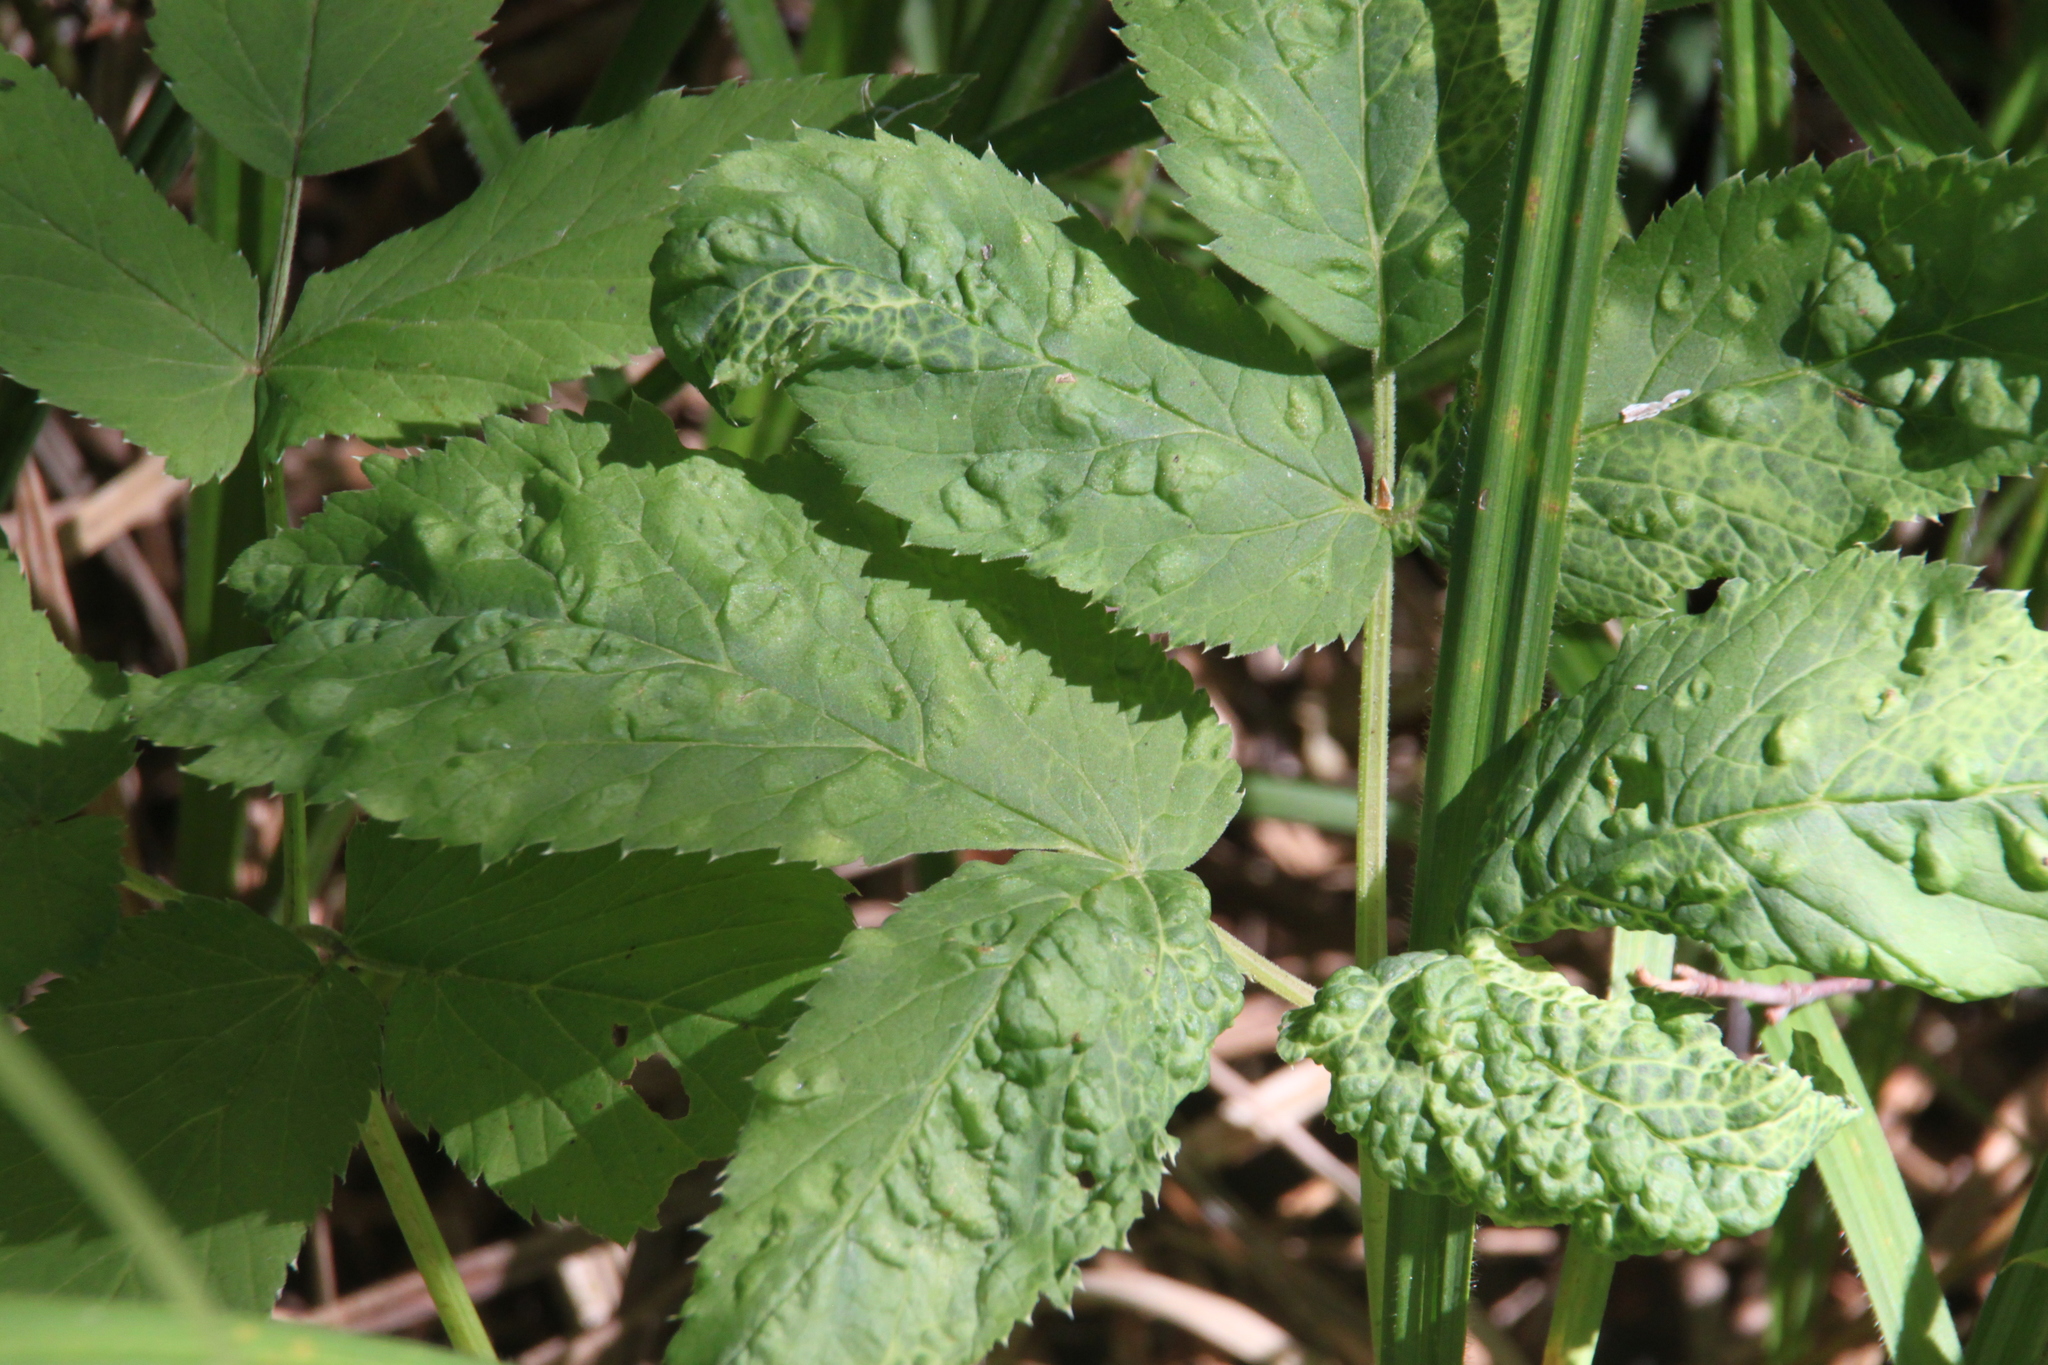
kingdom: Plantae
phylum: Tracheophyta
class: Magnoliopsida
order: Apiales
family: Apiaceae
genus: Aegopodium
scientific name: Aegopodium podagraria
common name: Ground-elder
